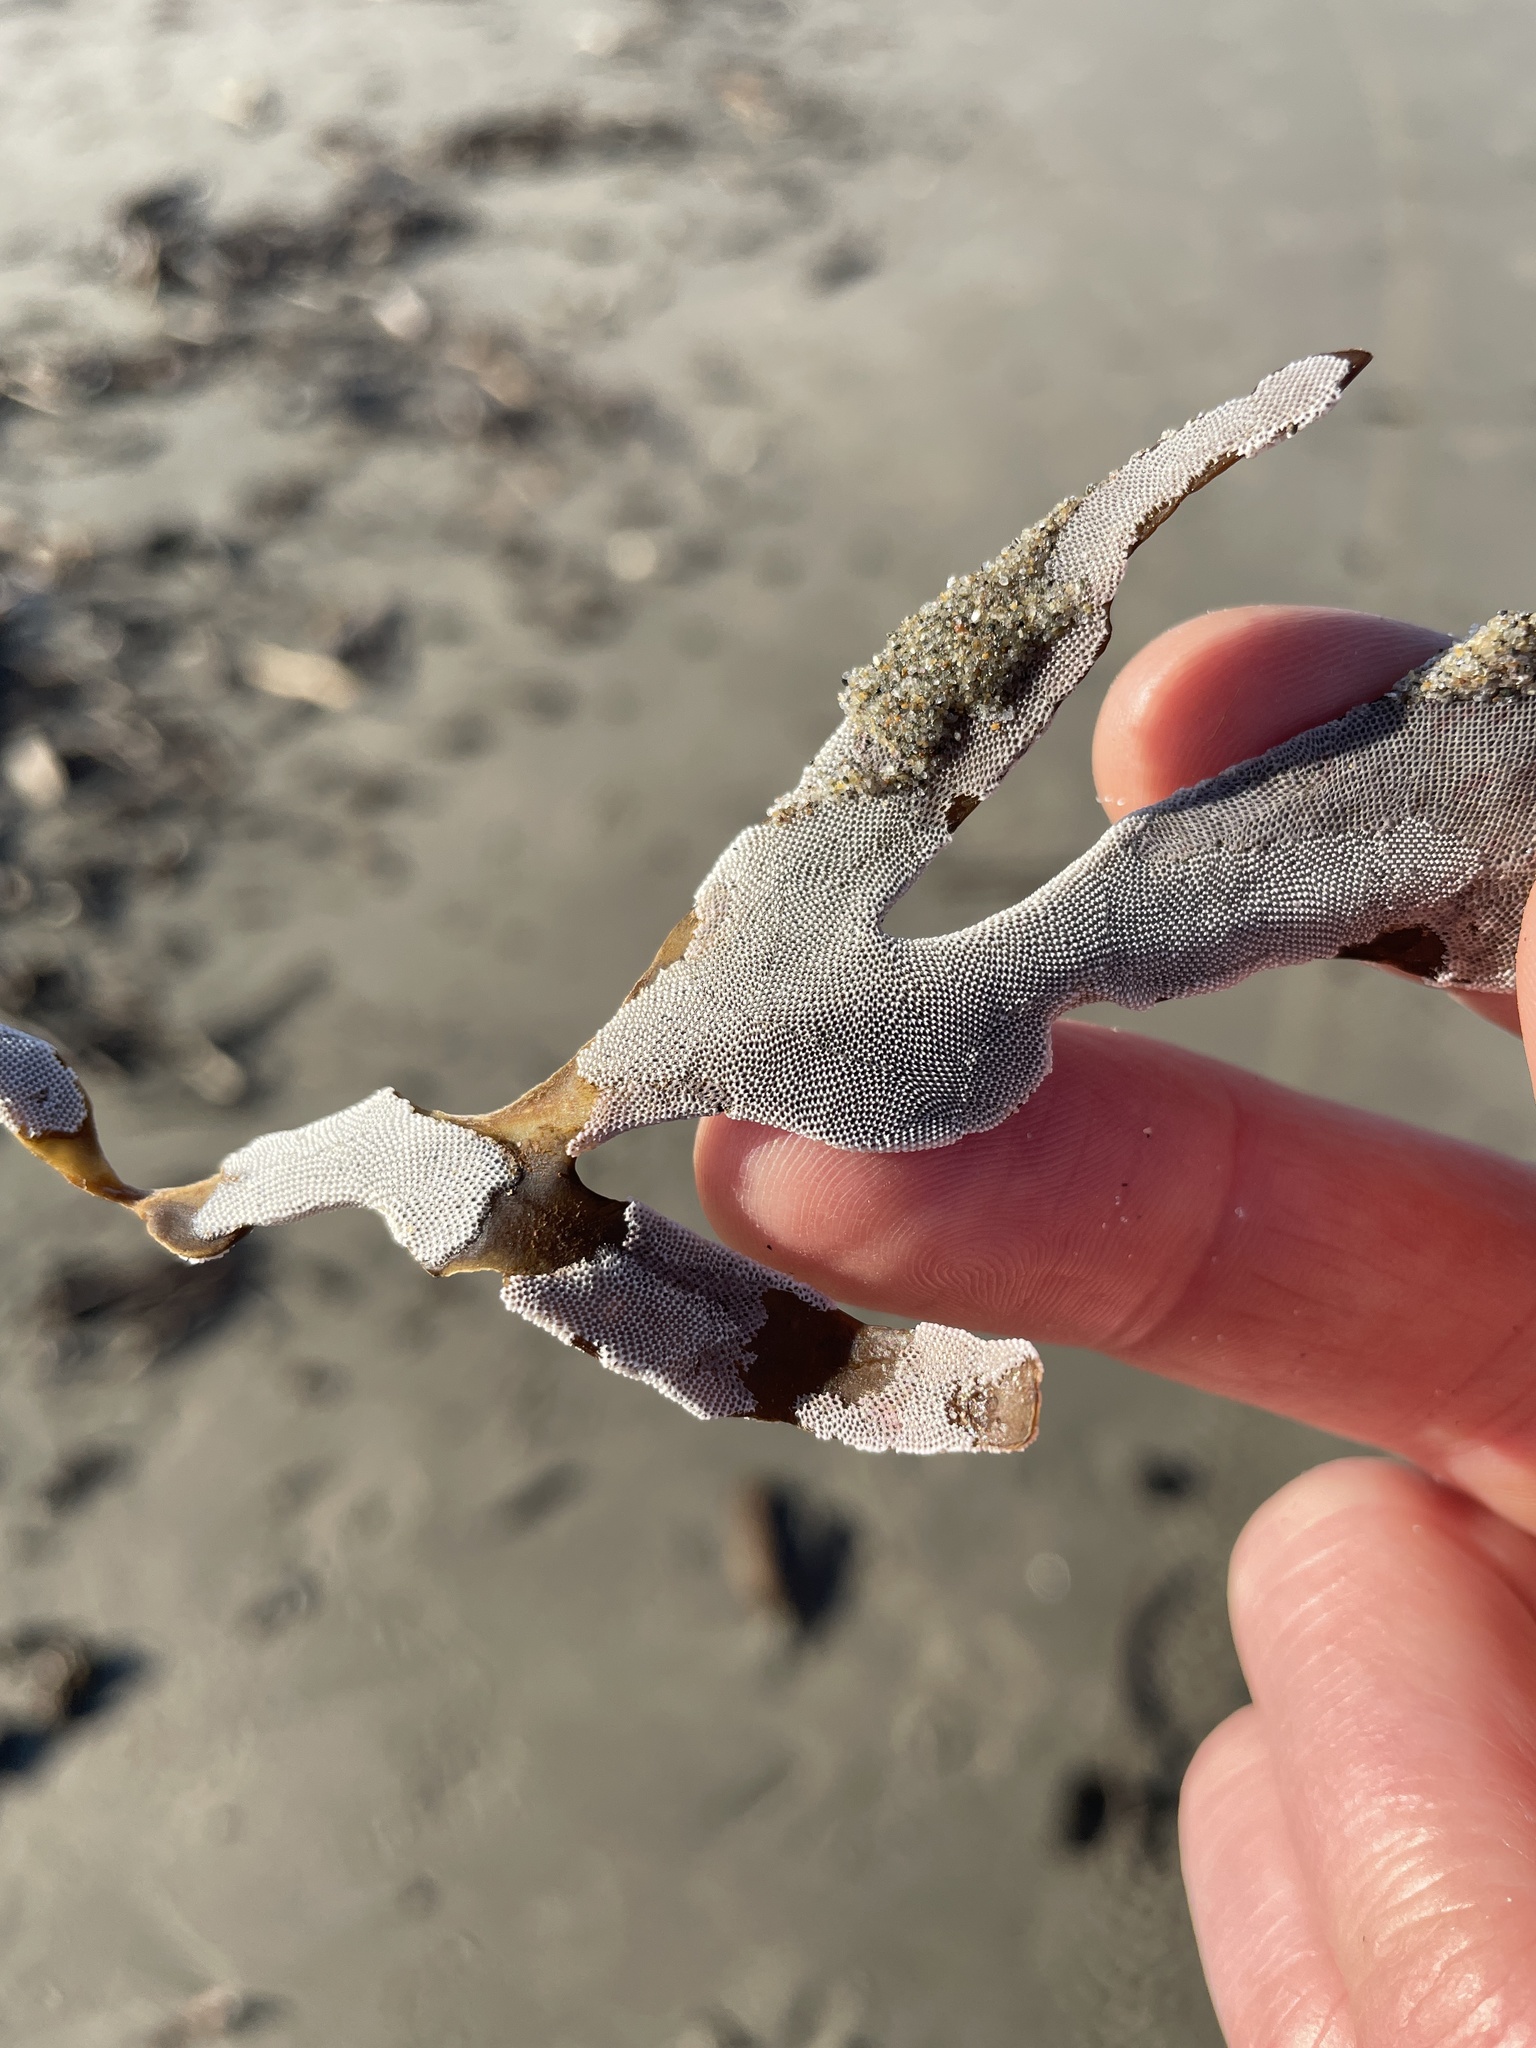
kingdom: Animalia
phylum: Bryozoa
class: Gymnolaemata
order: Cheilostomatida
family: Membraniporidae
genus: Jellyella
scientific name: Jellyella tuberculata
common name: Sargassum bryozoan
